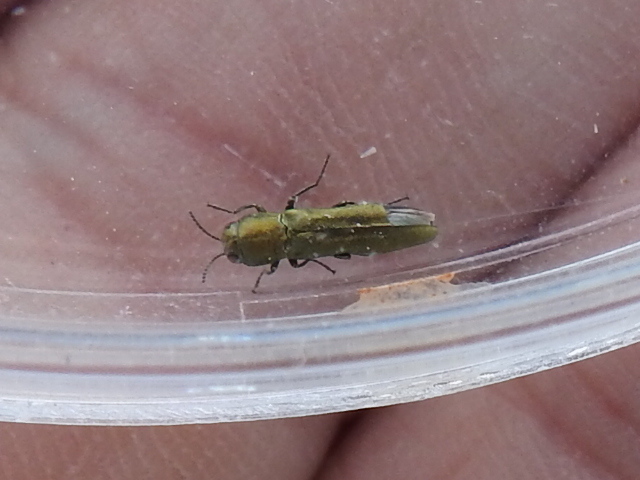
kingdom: Animalia
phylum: Arthropoda
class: Insecta
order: Coleoptera
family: Buprestidae
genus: Agrilus
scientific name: Agrilus lacustris
